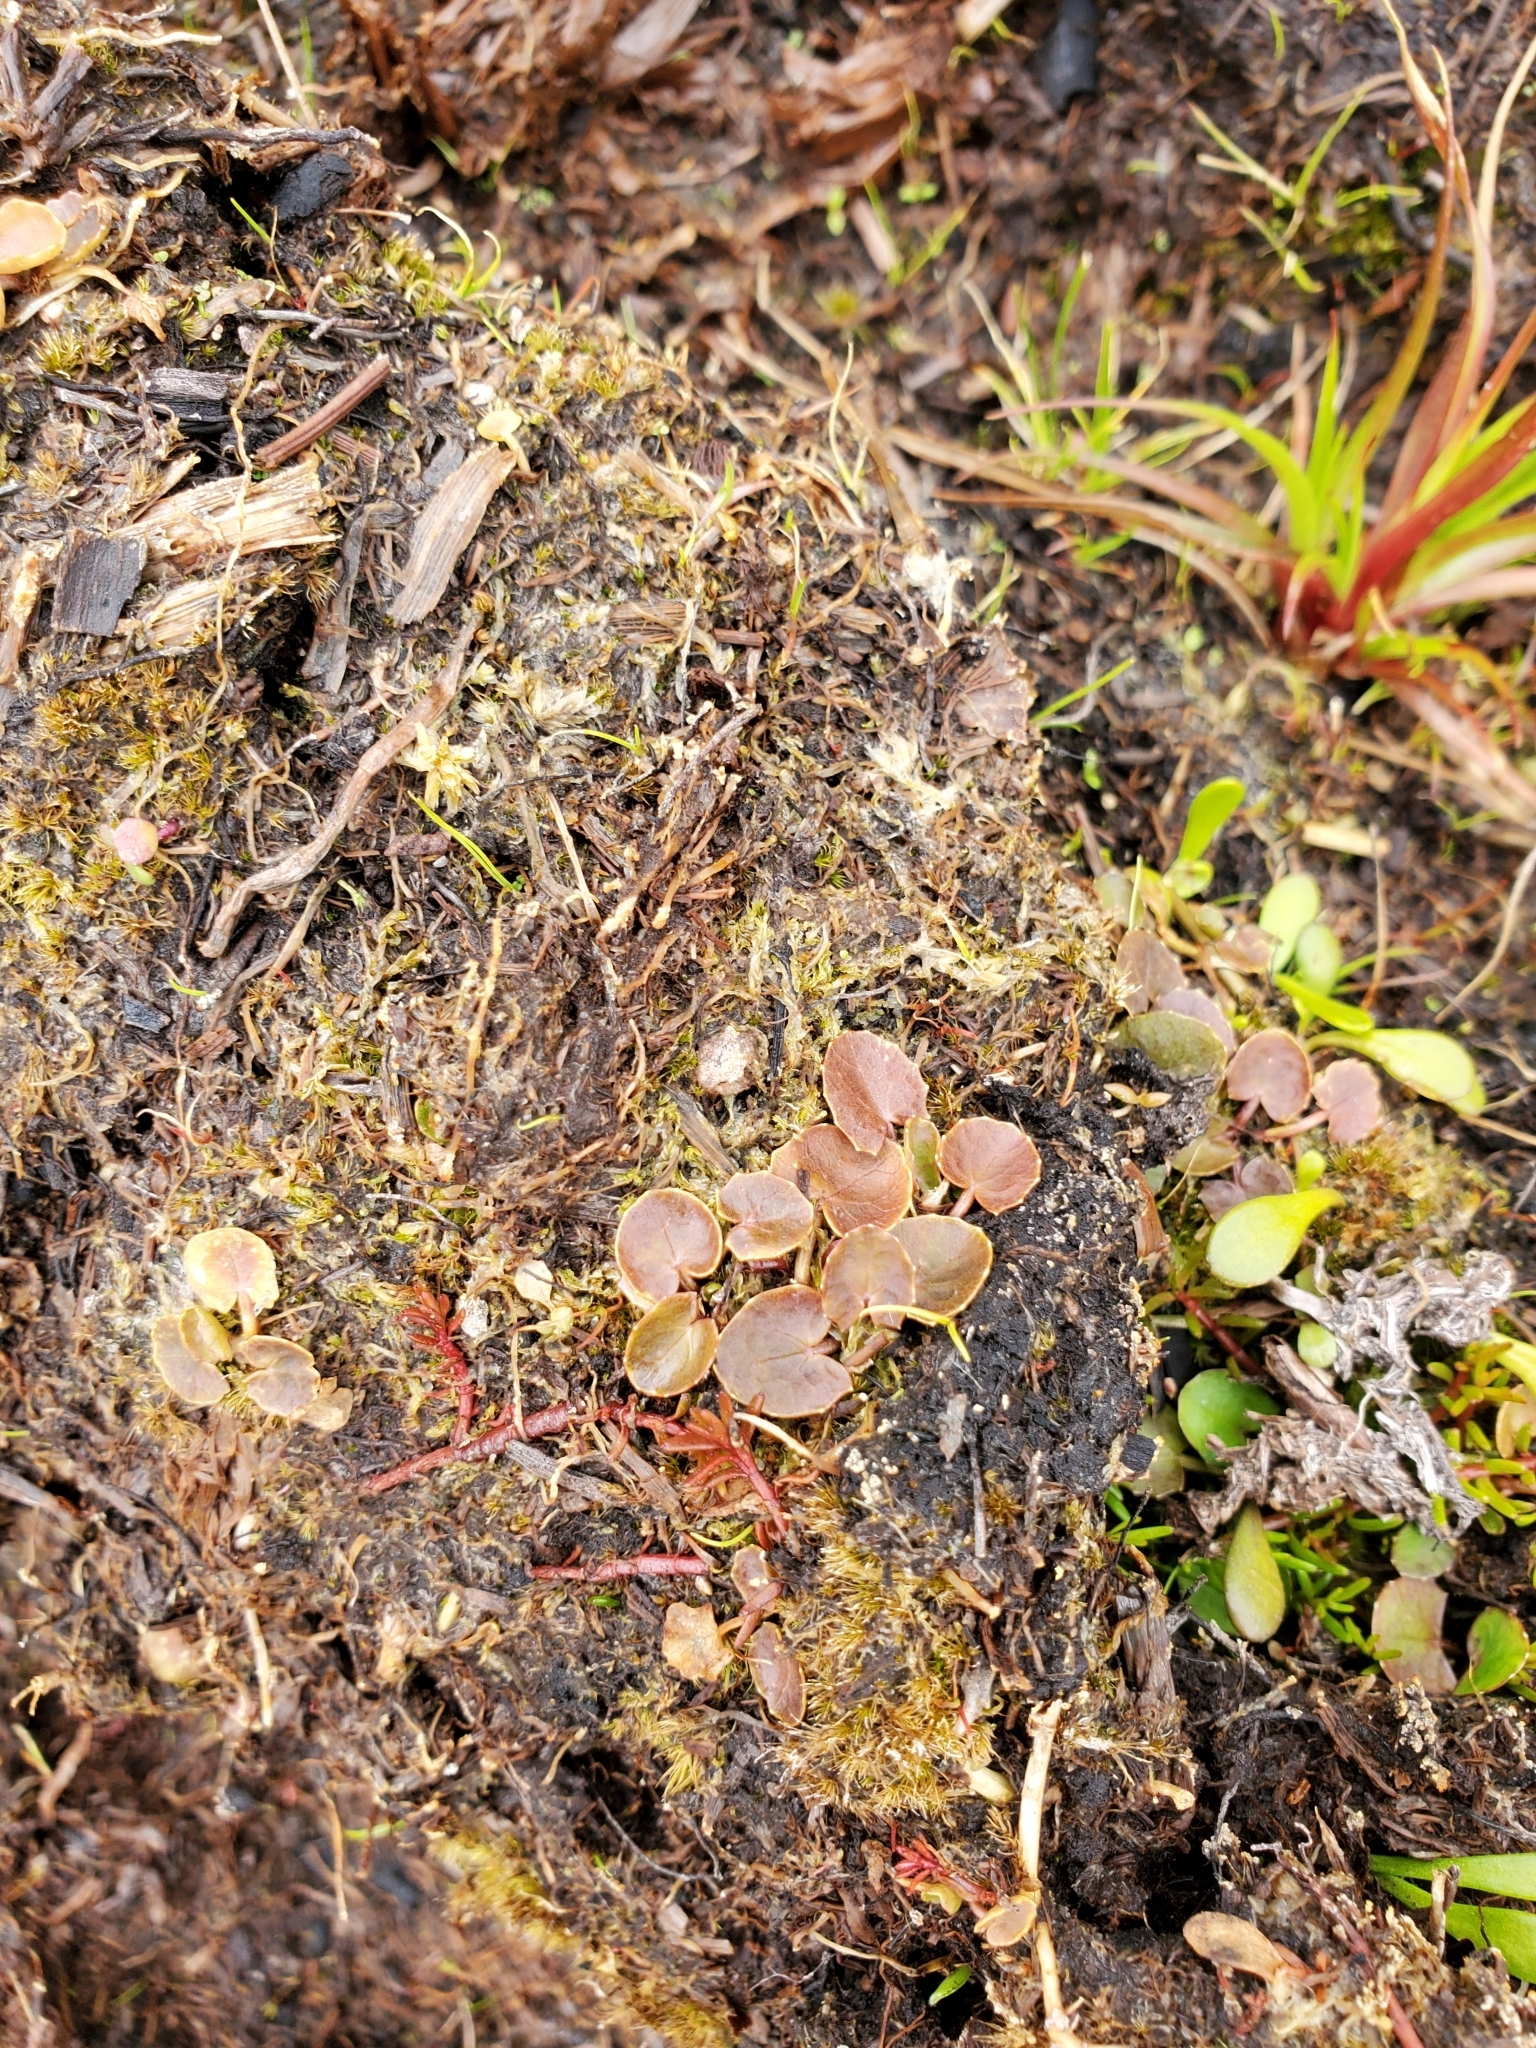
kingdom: Plantae
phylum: Tracheophyta
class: Magnoliopsida
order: Apiales
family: Apiaceae
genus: Centella
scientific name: Centella uniflora
